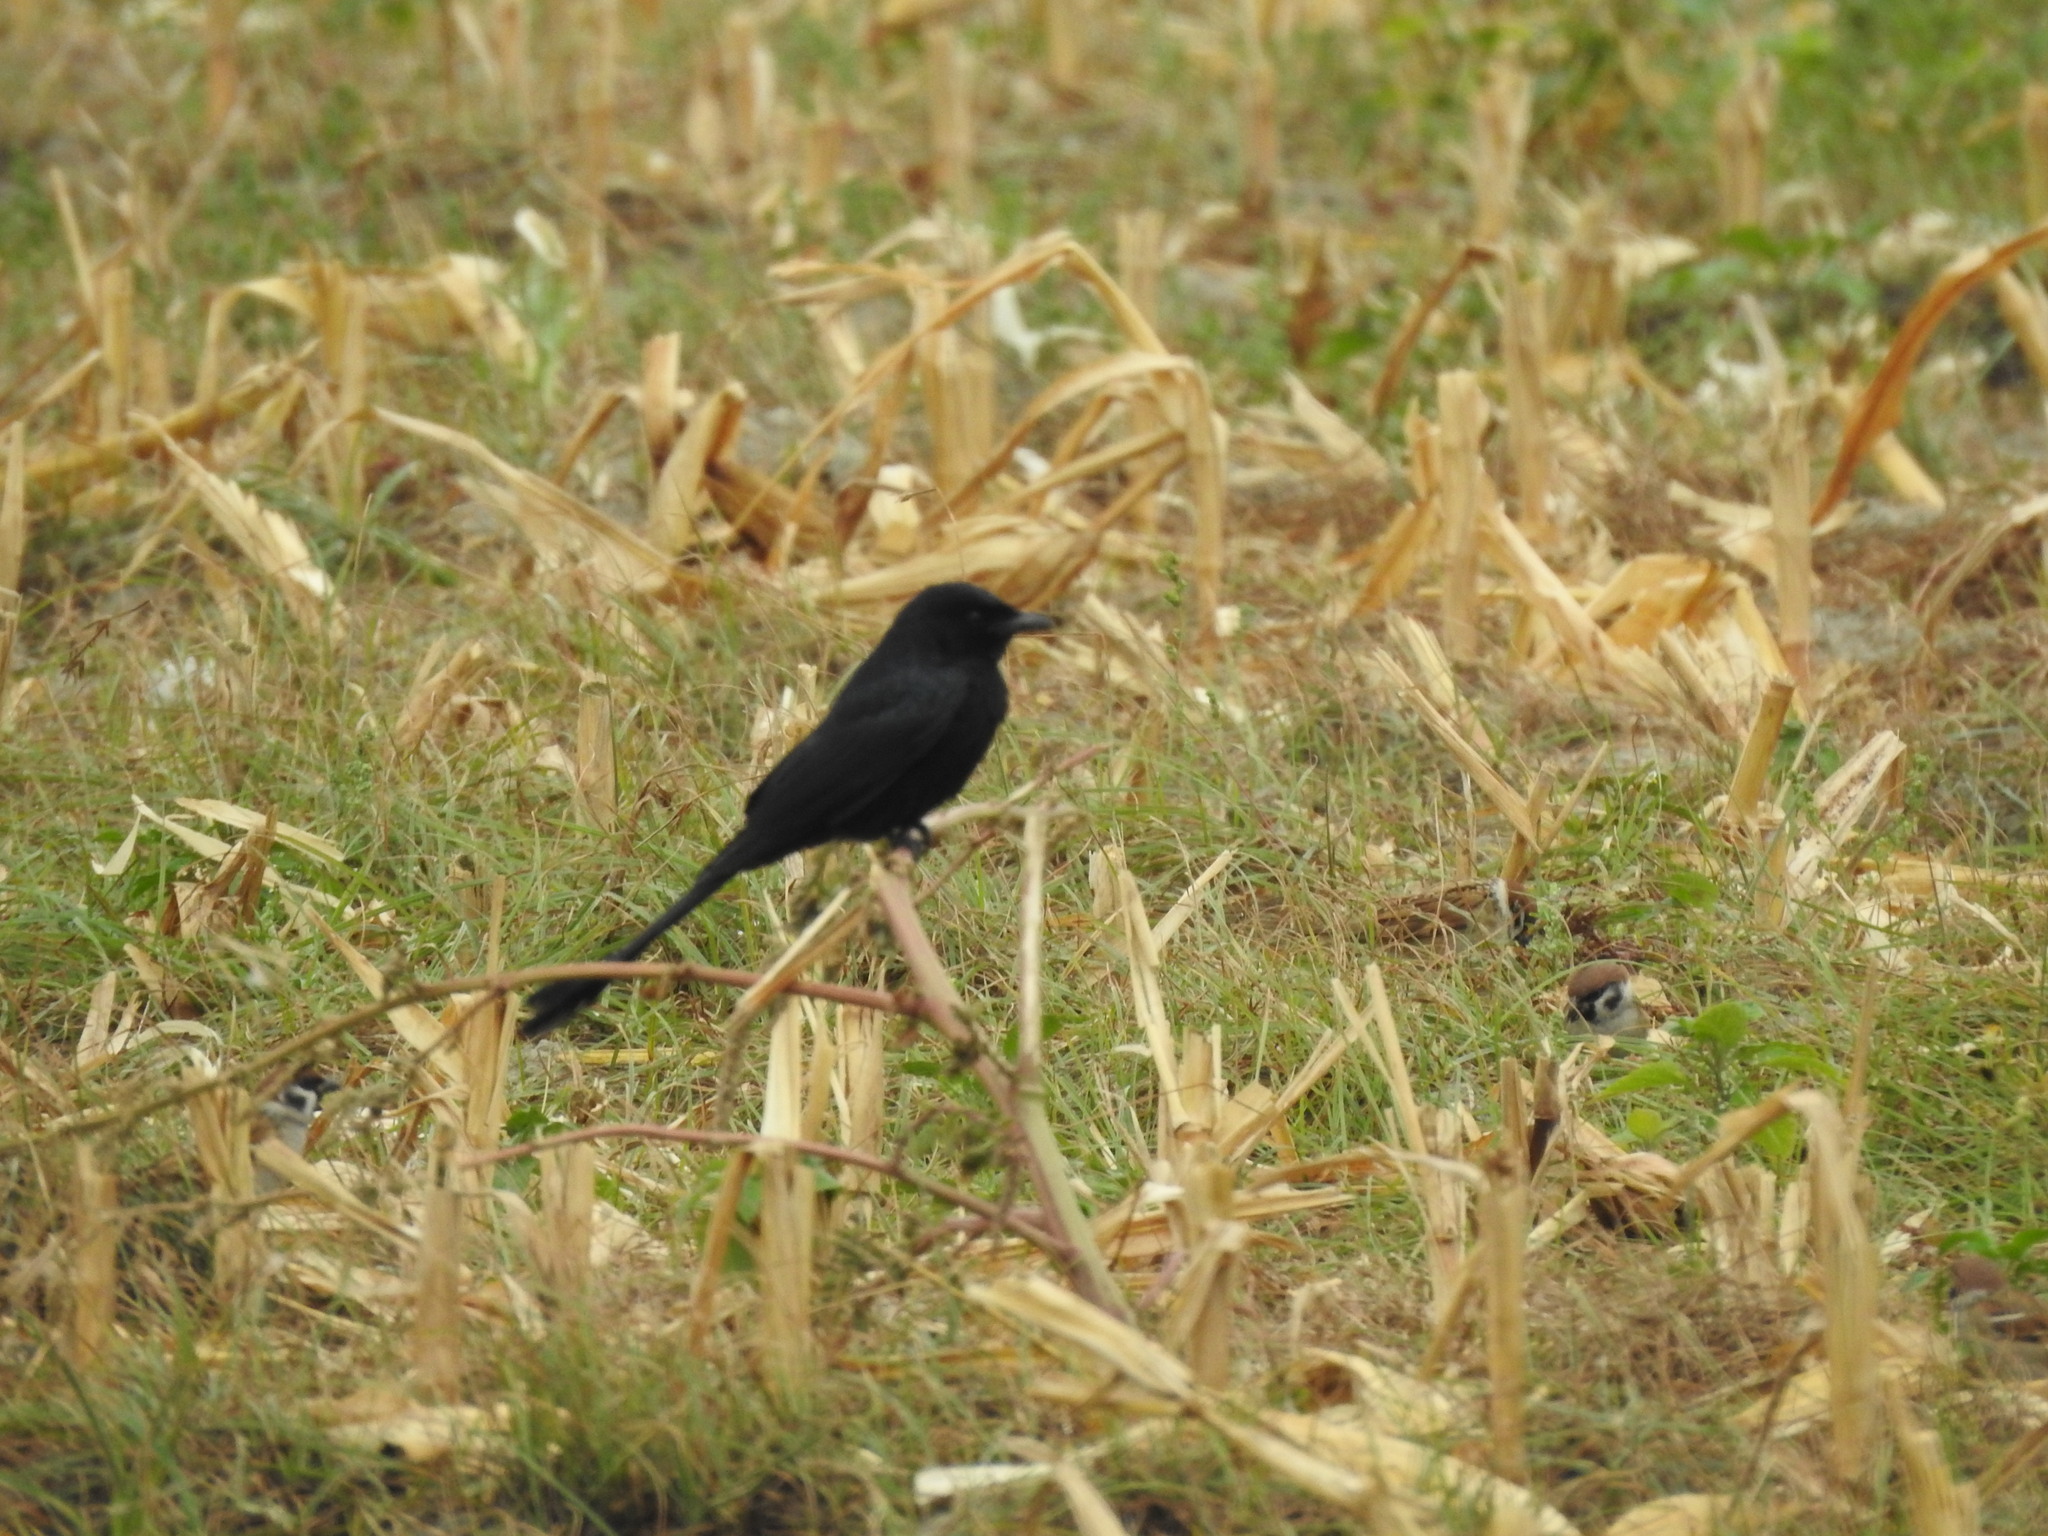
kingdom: Animalia
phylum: Chordata
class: Aves
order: Passeriformes
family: Dicruridae
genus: Dicrurus
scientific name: Dicrurus macrocercus
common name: Black drongo
